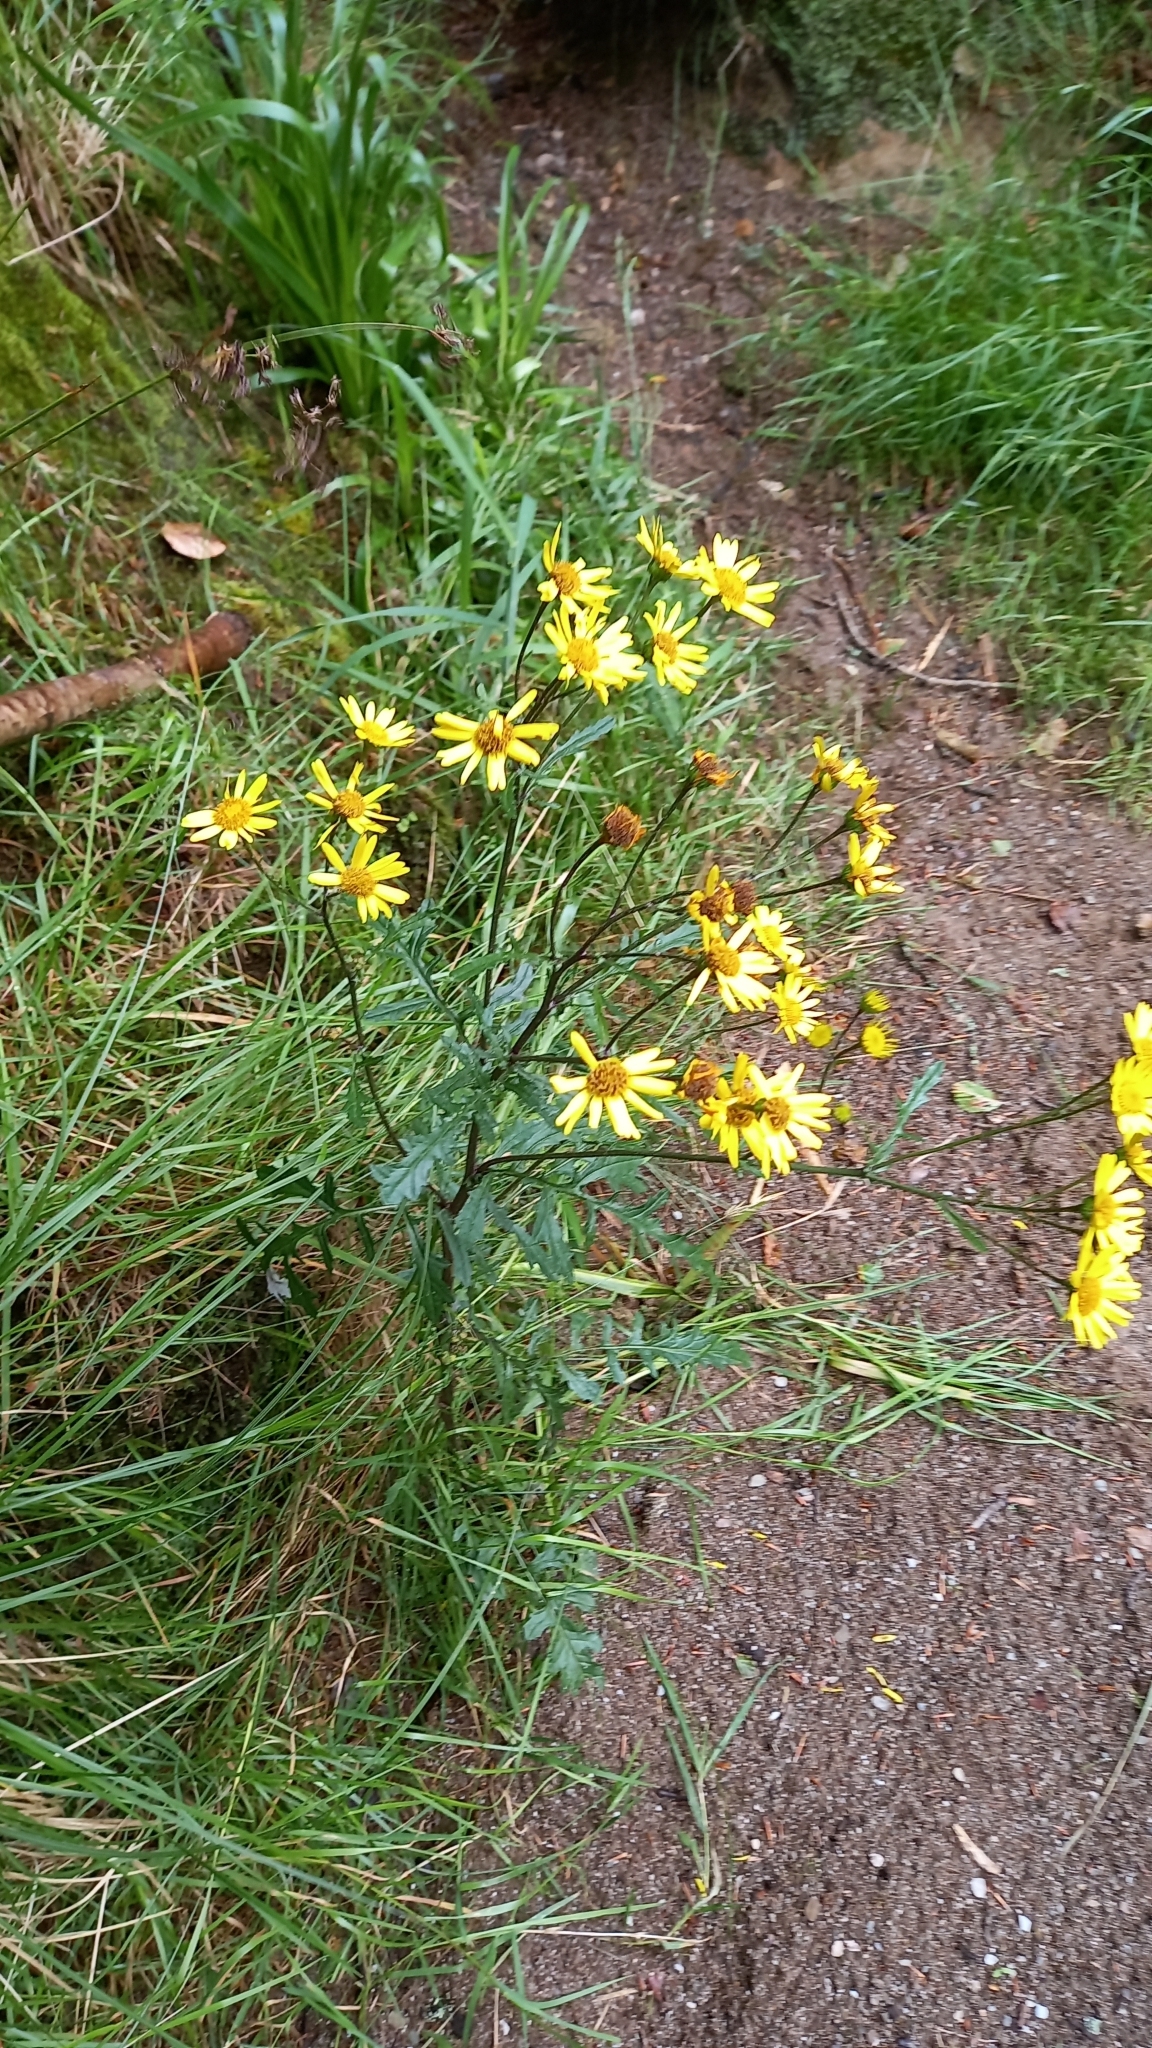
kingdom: Plantae
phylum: Tracheophyta
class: Magnoliopsida
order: Asterales
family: Asteraceae
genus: Jacobaea
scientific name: Jacobaea erucifolia
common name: Hoary ragwort
